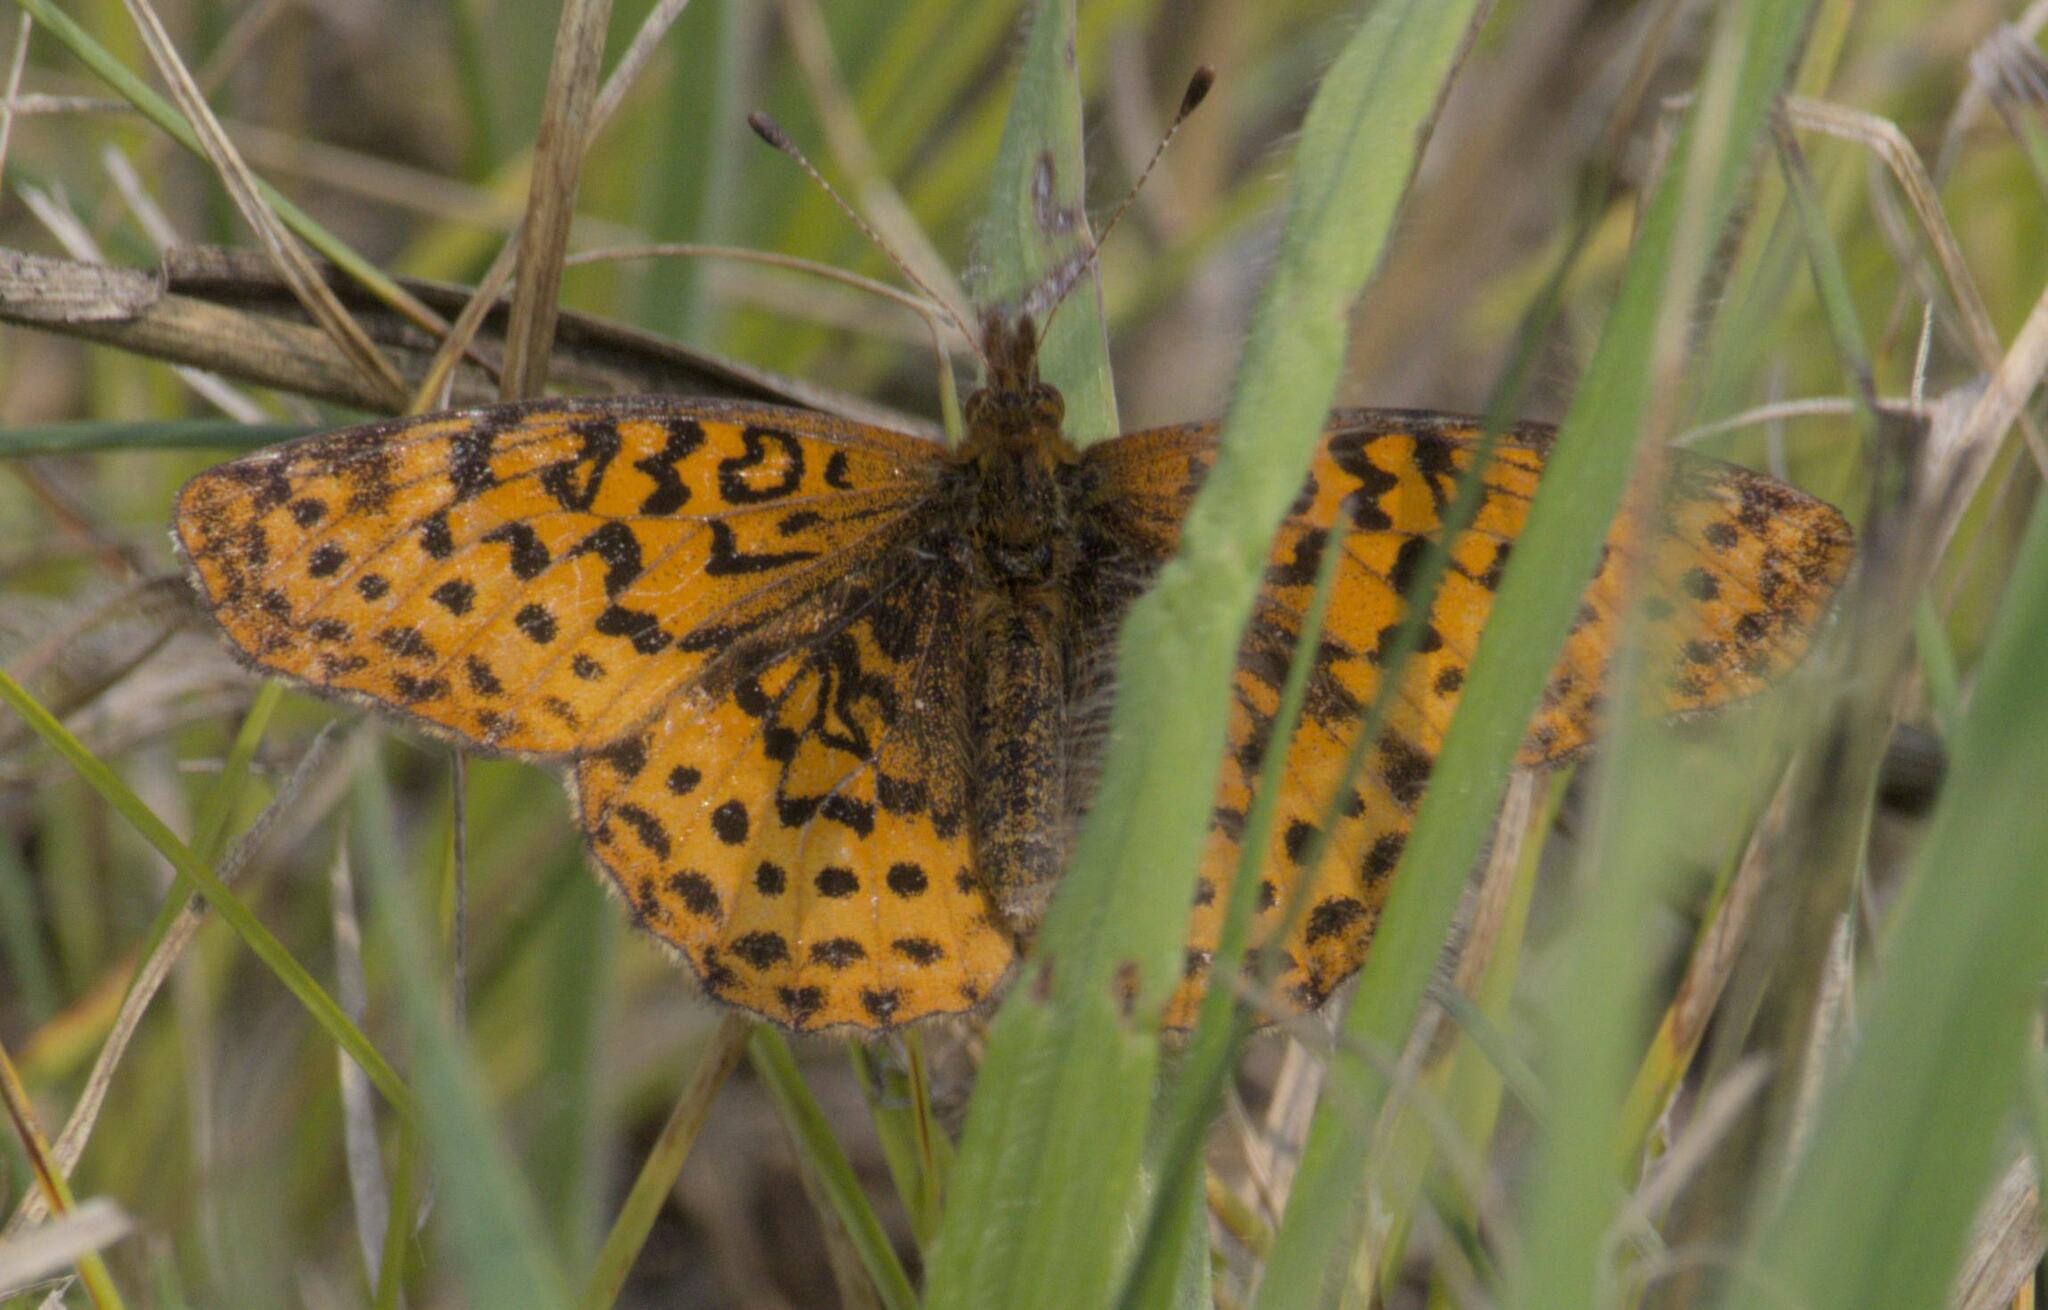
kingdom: Animalia
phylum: Arthropoda
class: Insecta
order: Lepidoptera
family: Nymphalidae
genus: Clossiana
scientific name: Clossiana toddi
